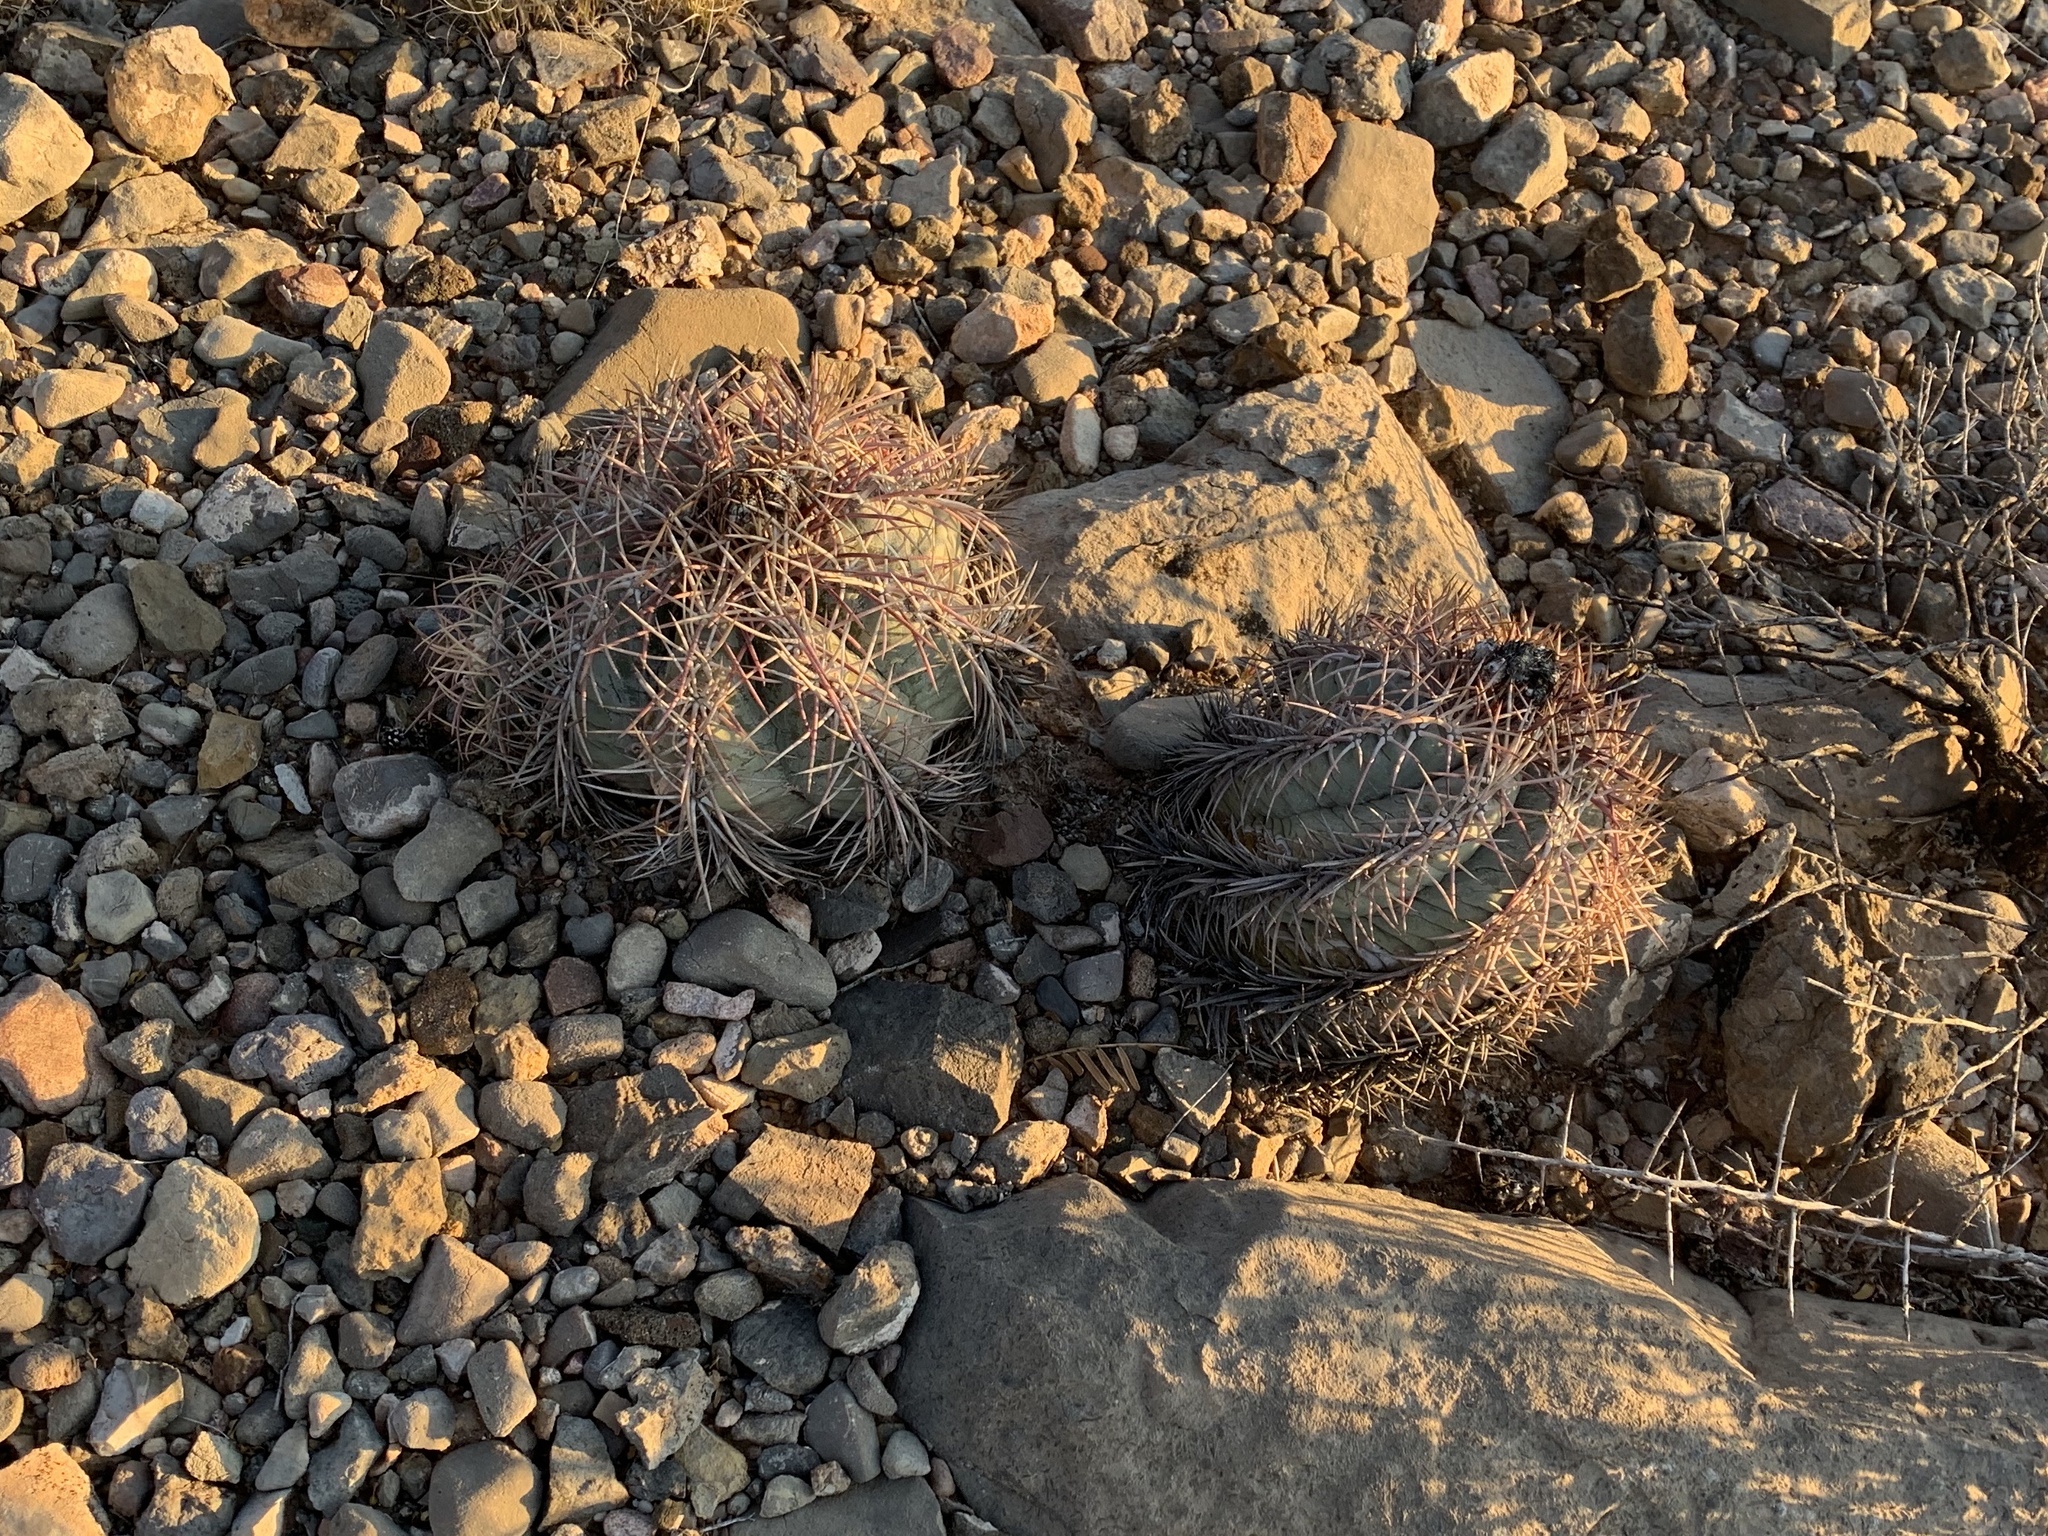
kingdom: Plantae
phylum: Tracheophyta
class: Magnoliopsida
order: Caryophyllales
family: Cactaceae
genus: Echinocactus
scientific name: Echinocactus horizonthalonius
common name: Devilshead
